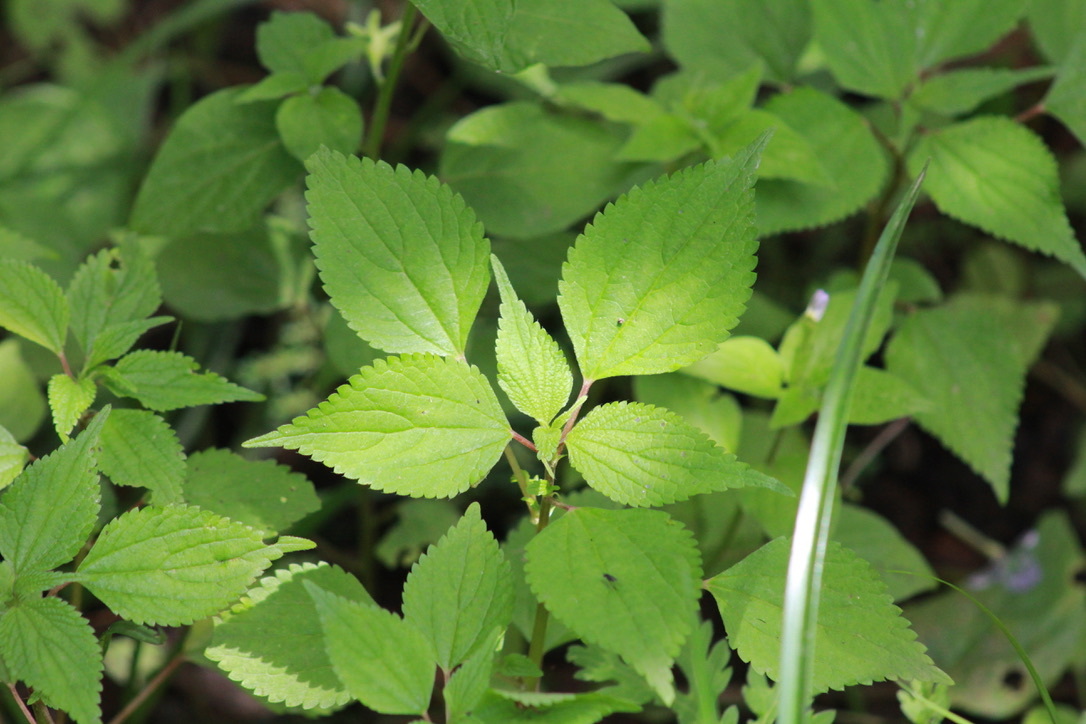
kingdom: Plantae
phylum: Tracheophyta
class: Magnoliopsida
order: Solanales
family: Solanaceae
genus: Browallia
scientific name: Browallia americana
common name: Jamaican forget-me-not
